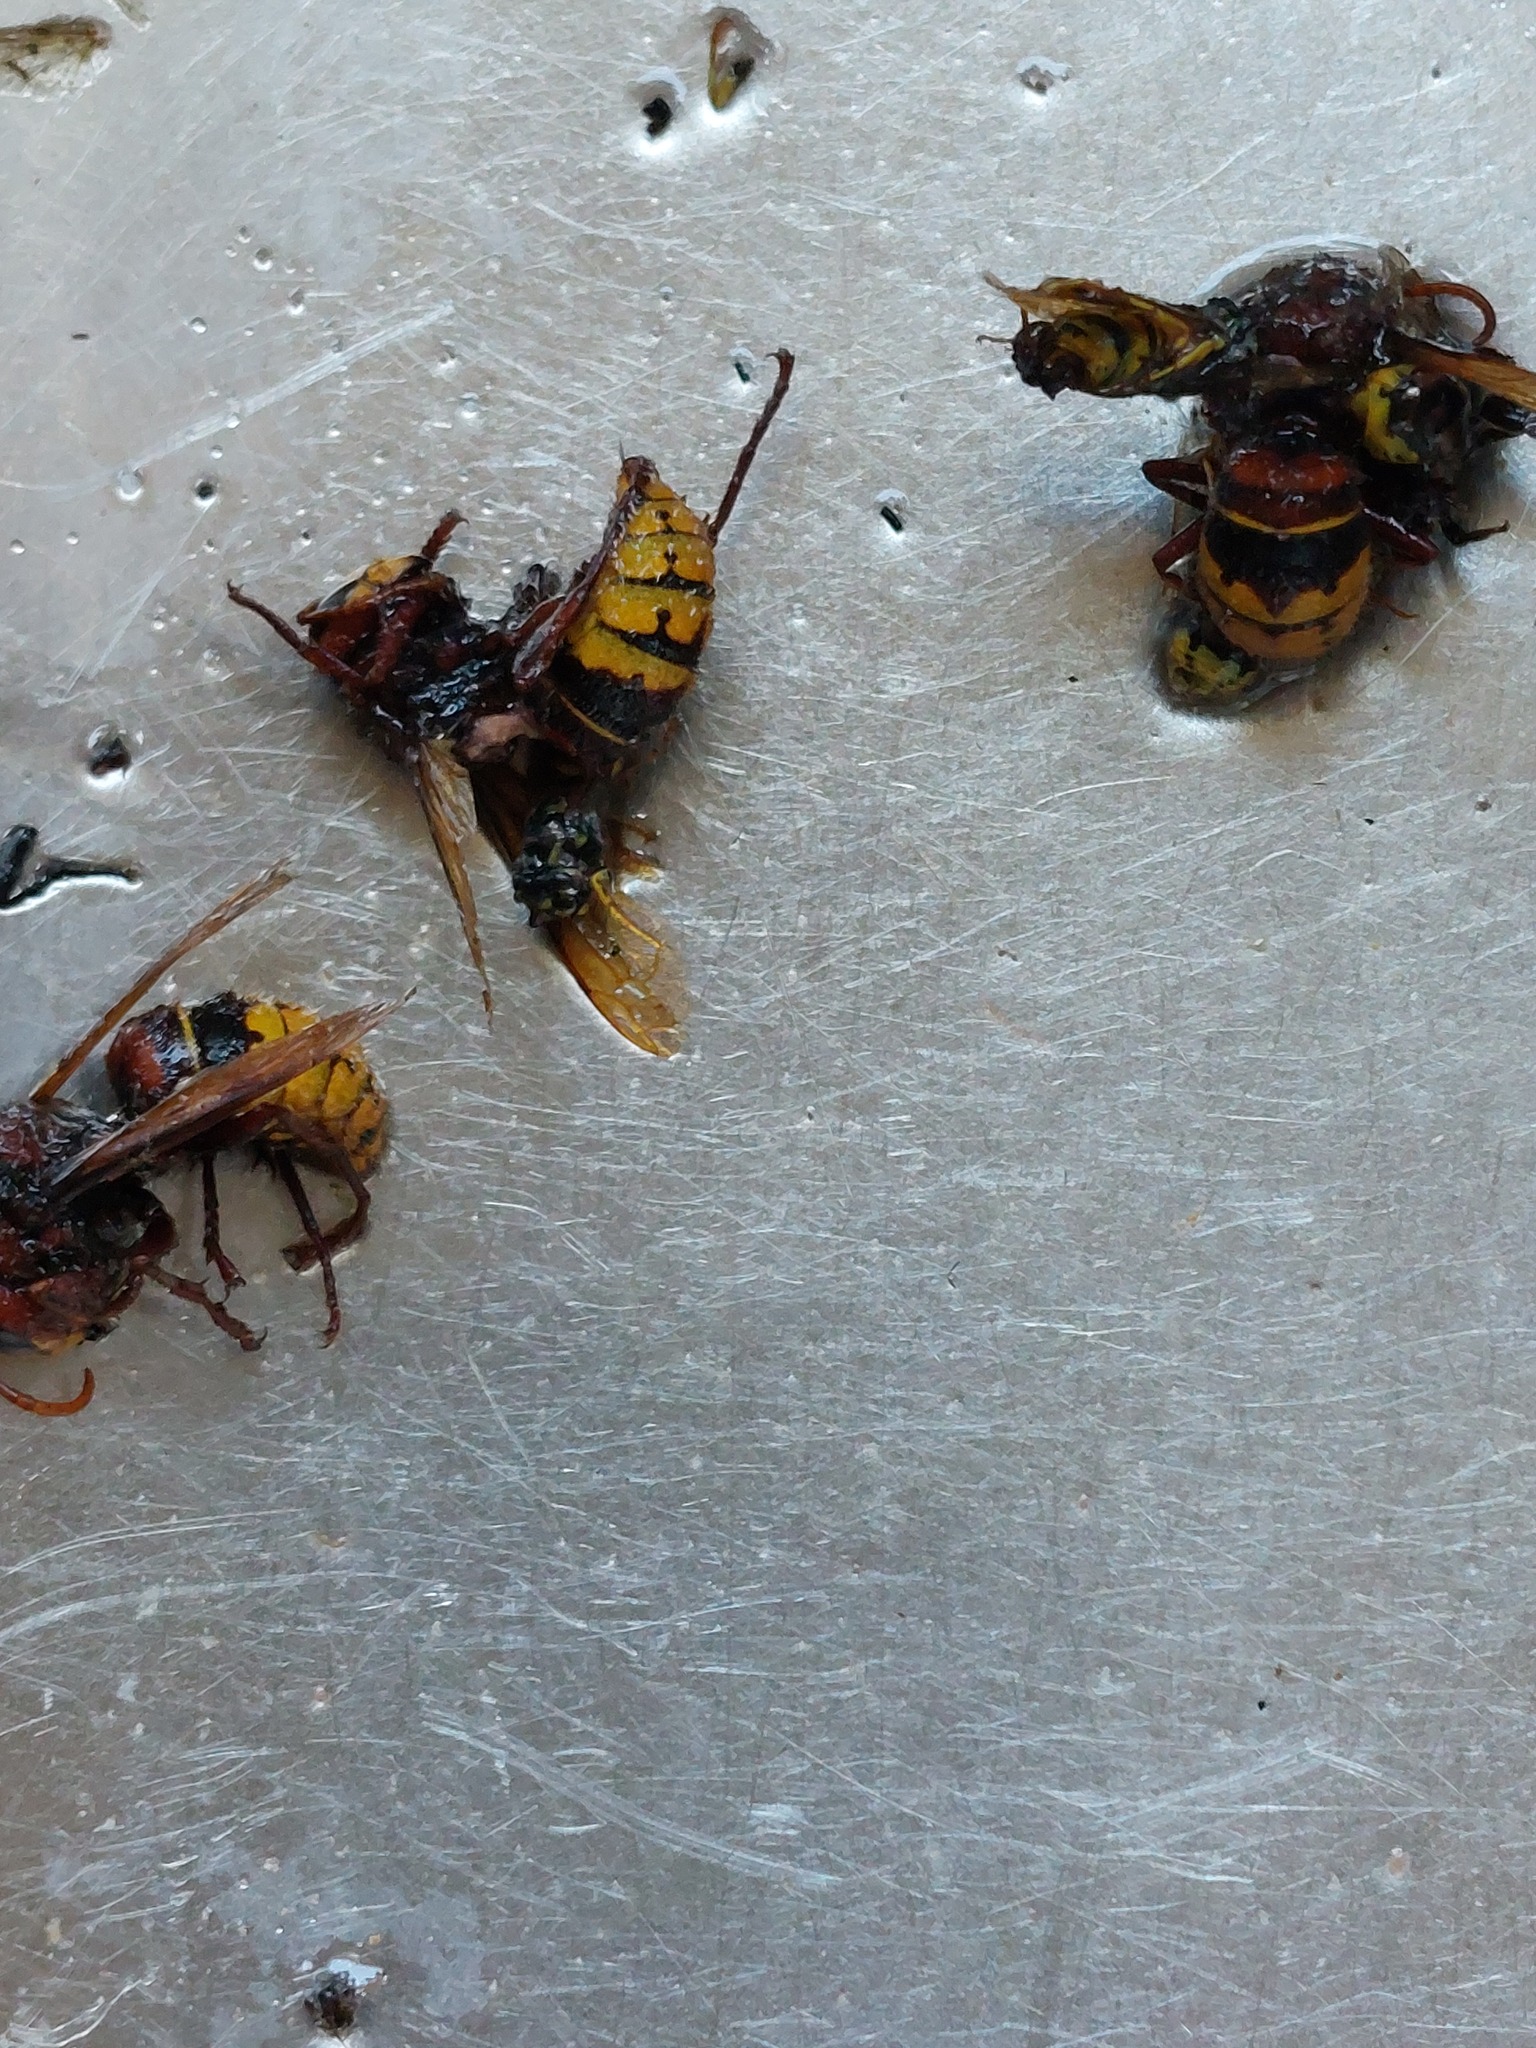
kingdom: Animalia
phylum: Arthropoda
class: Insecta
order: Hymenoptera
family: Vespidae
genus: Vespa
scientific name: Vespa crabro
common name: Hornet
